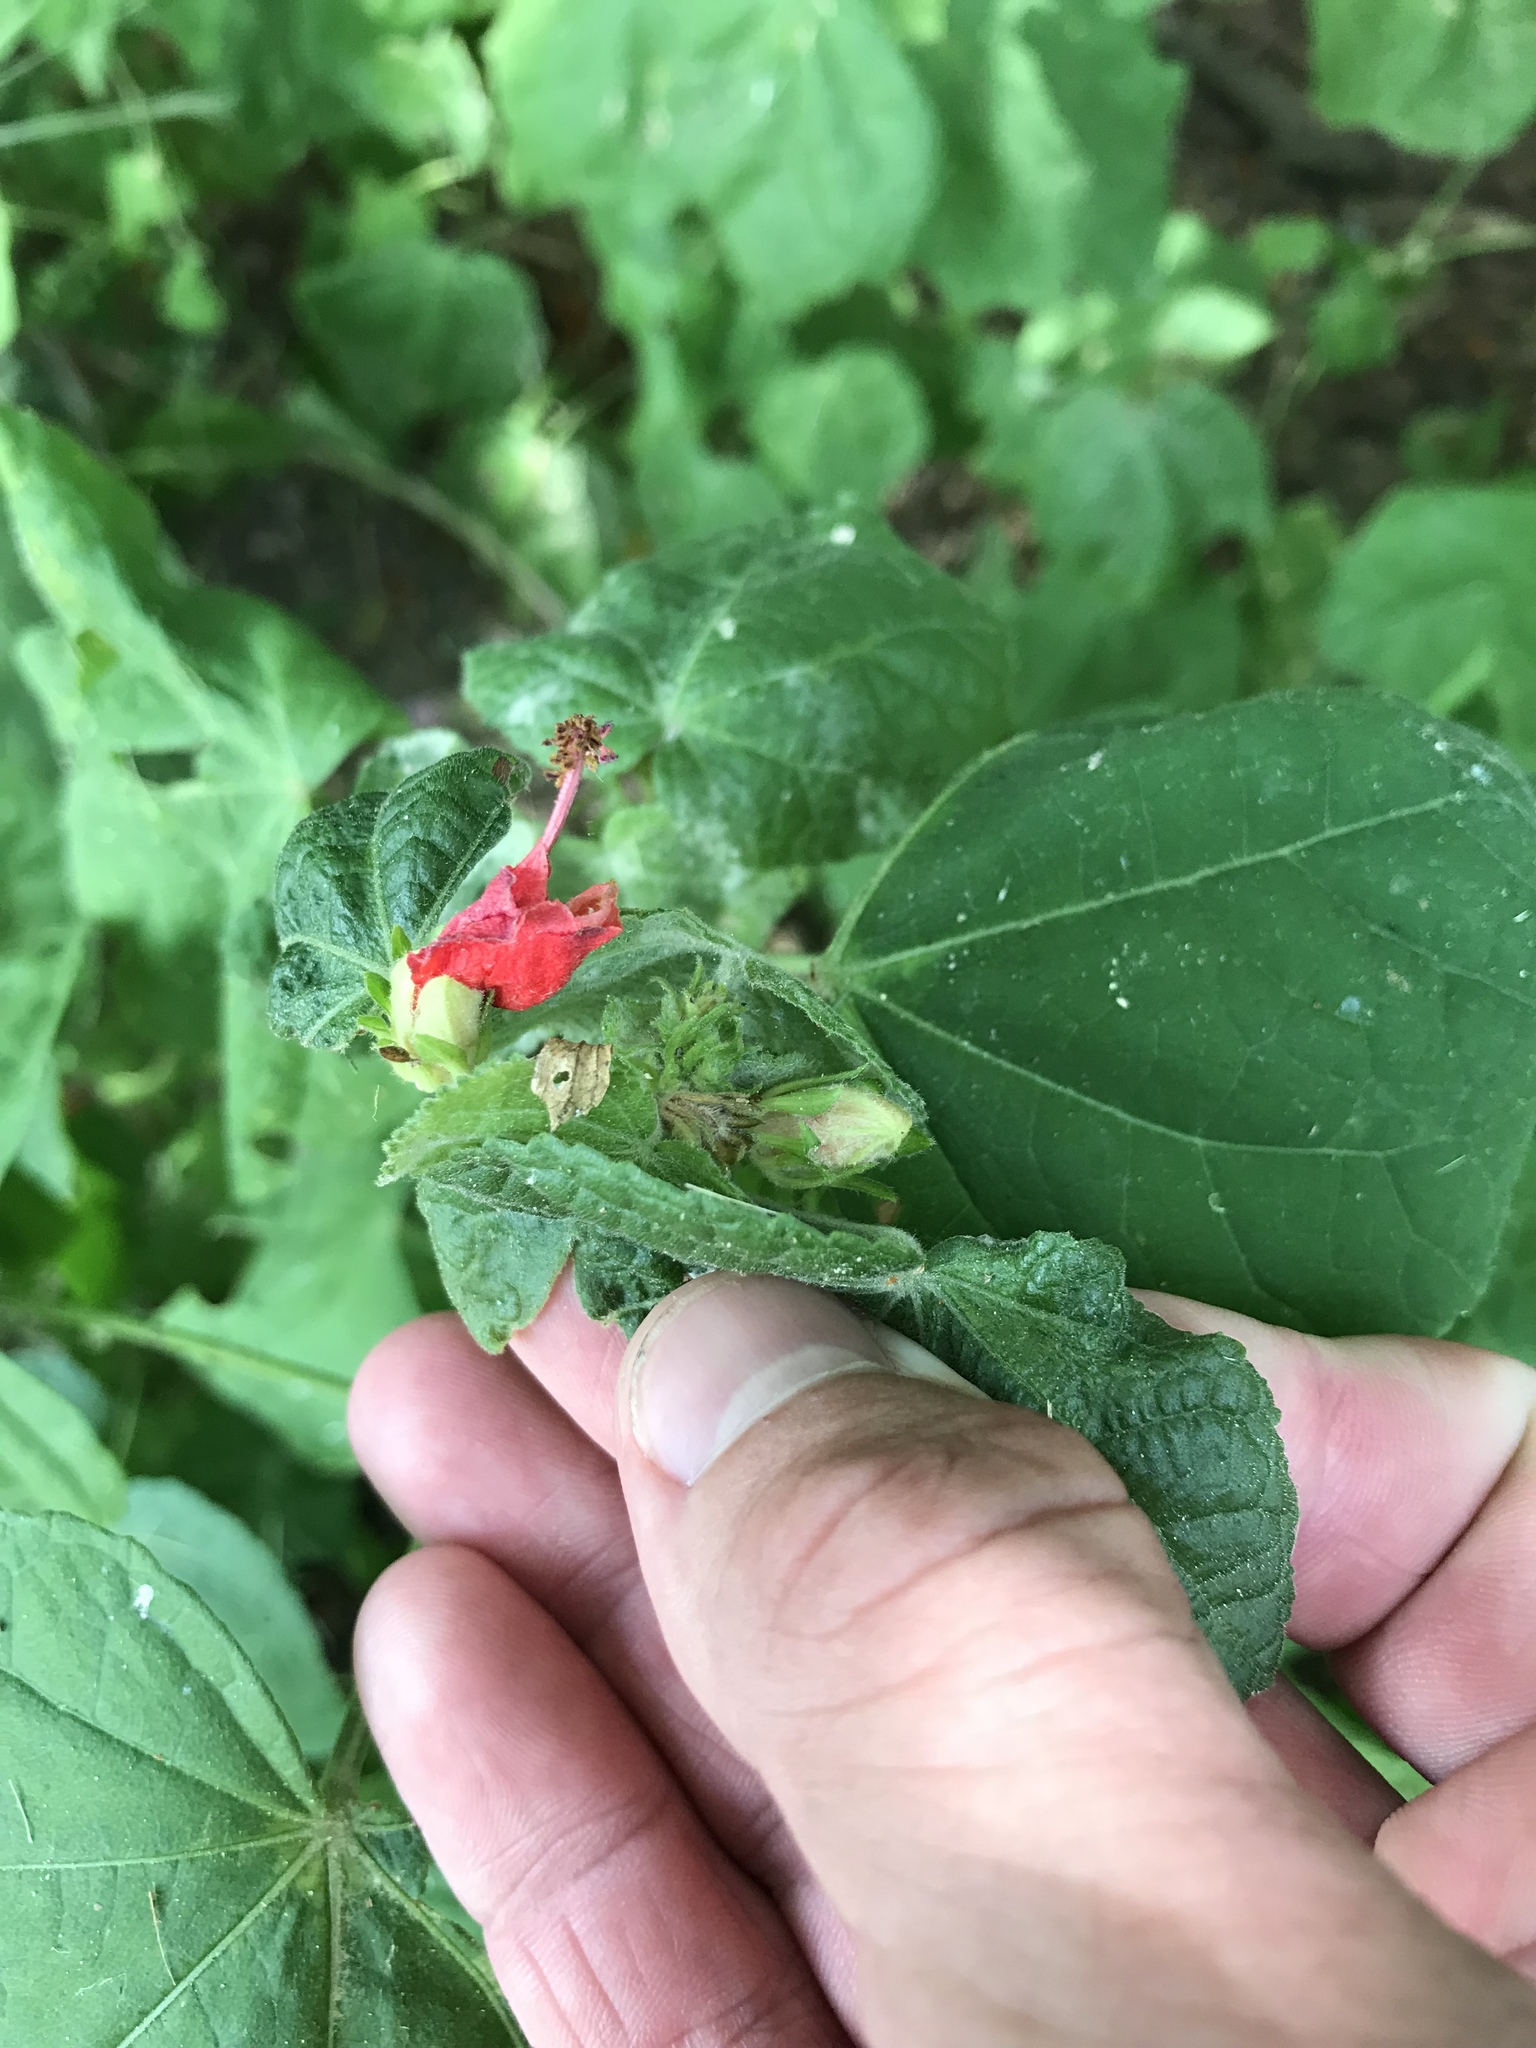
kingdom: Plantae
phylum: Tracheophyta
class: Magnoliopsida
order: Malvales
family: Malvaceae
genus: Malvaviscus
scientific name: Malvaviscus arboreus
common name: Wax mallow
